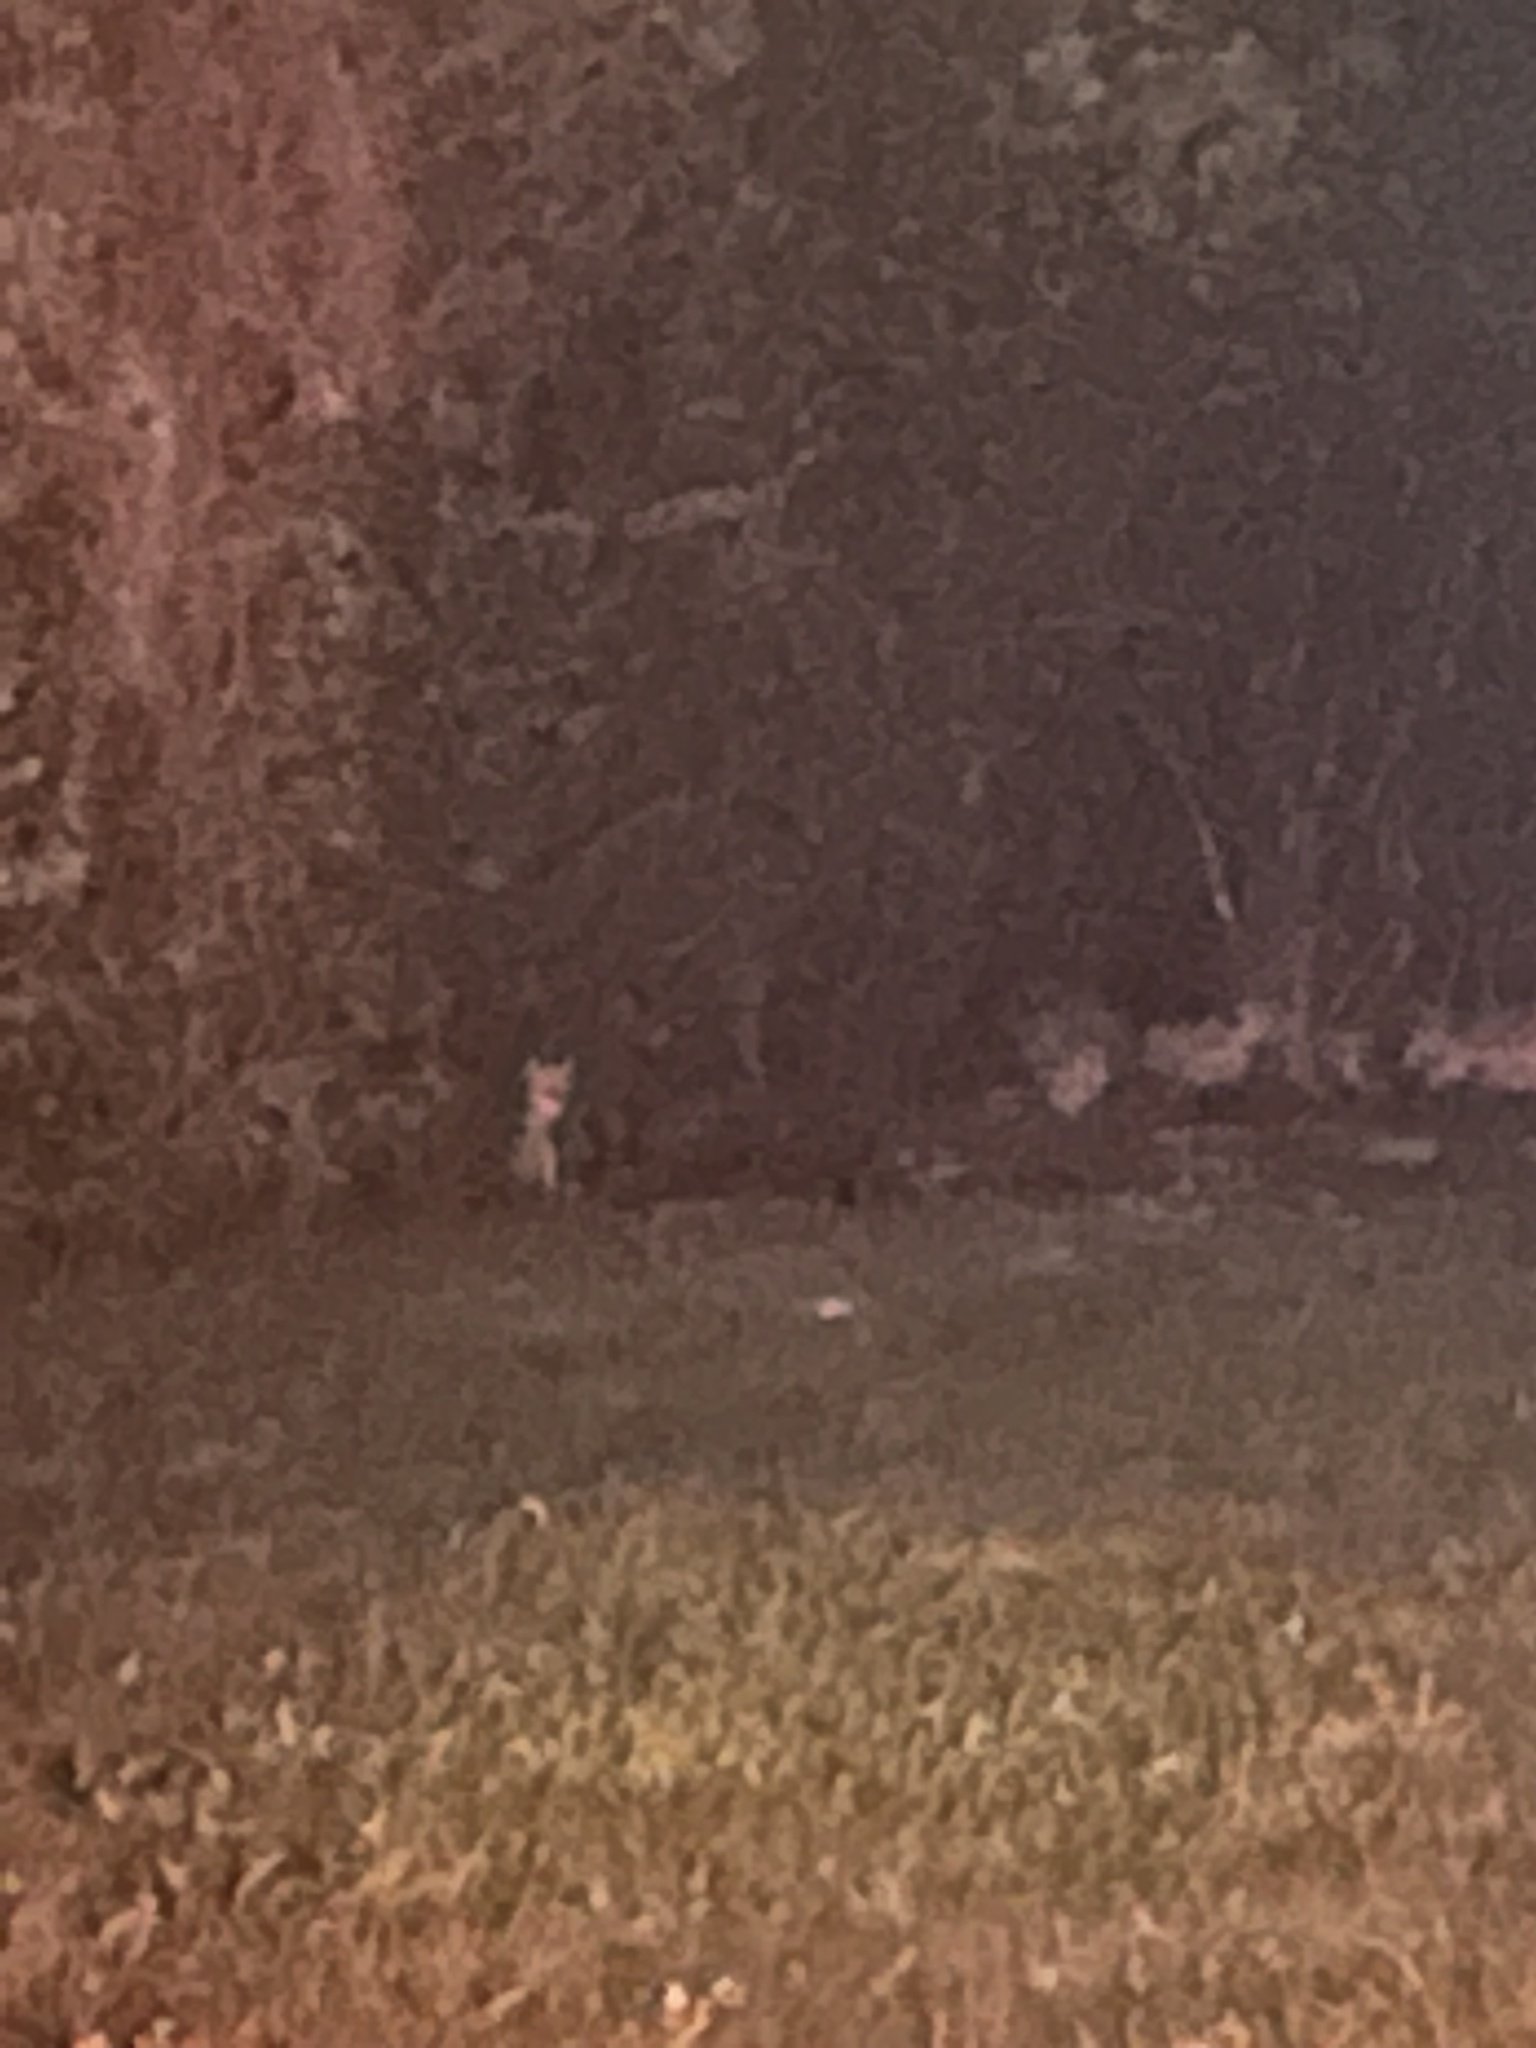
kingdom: Animalia
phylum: Chordata
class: Mammalia
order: Carnivora
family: Canidae
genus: Canis
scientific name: Canis latrans
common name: Coyote
